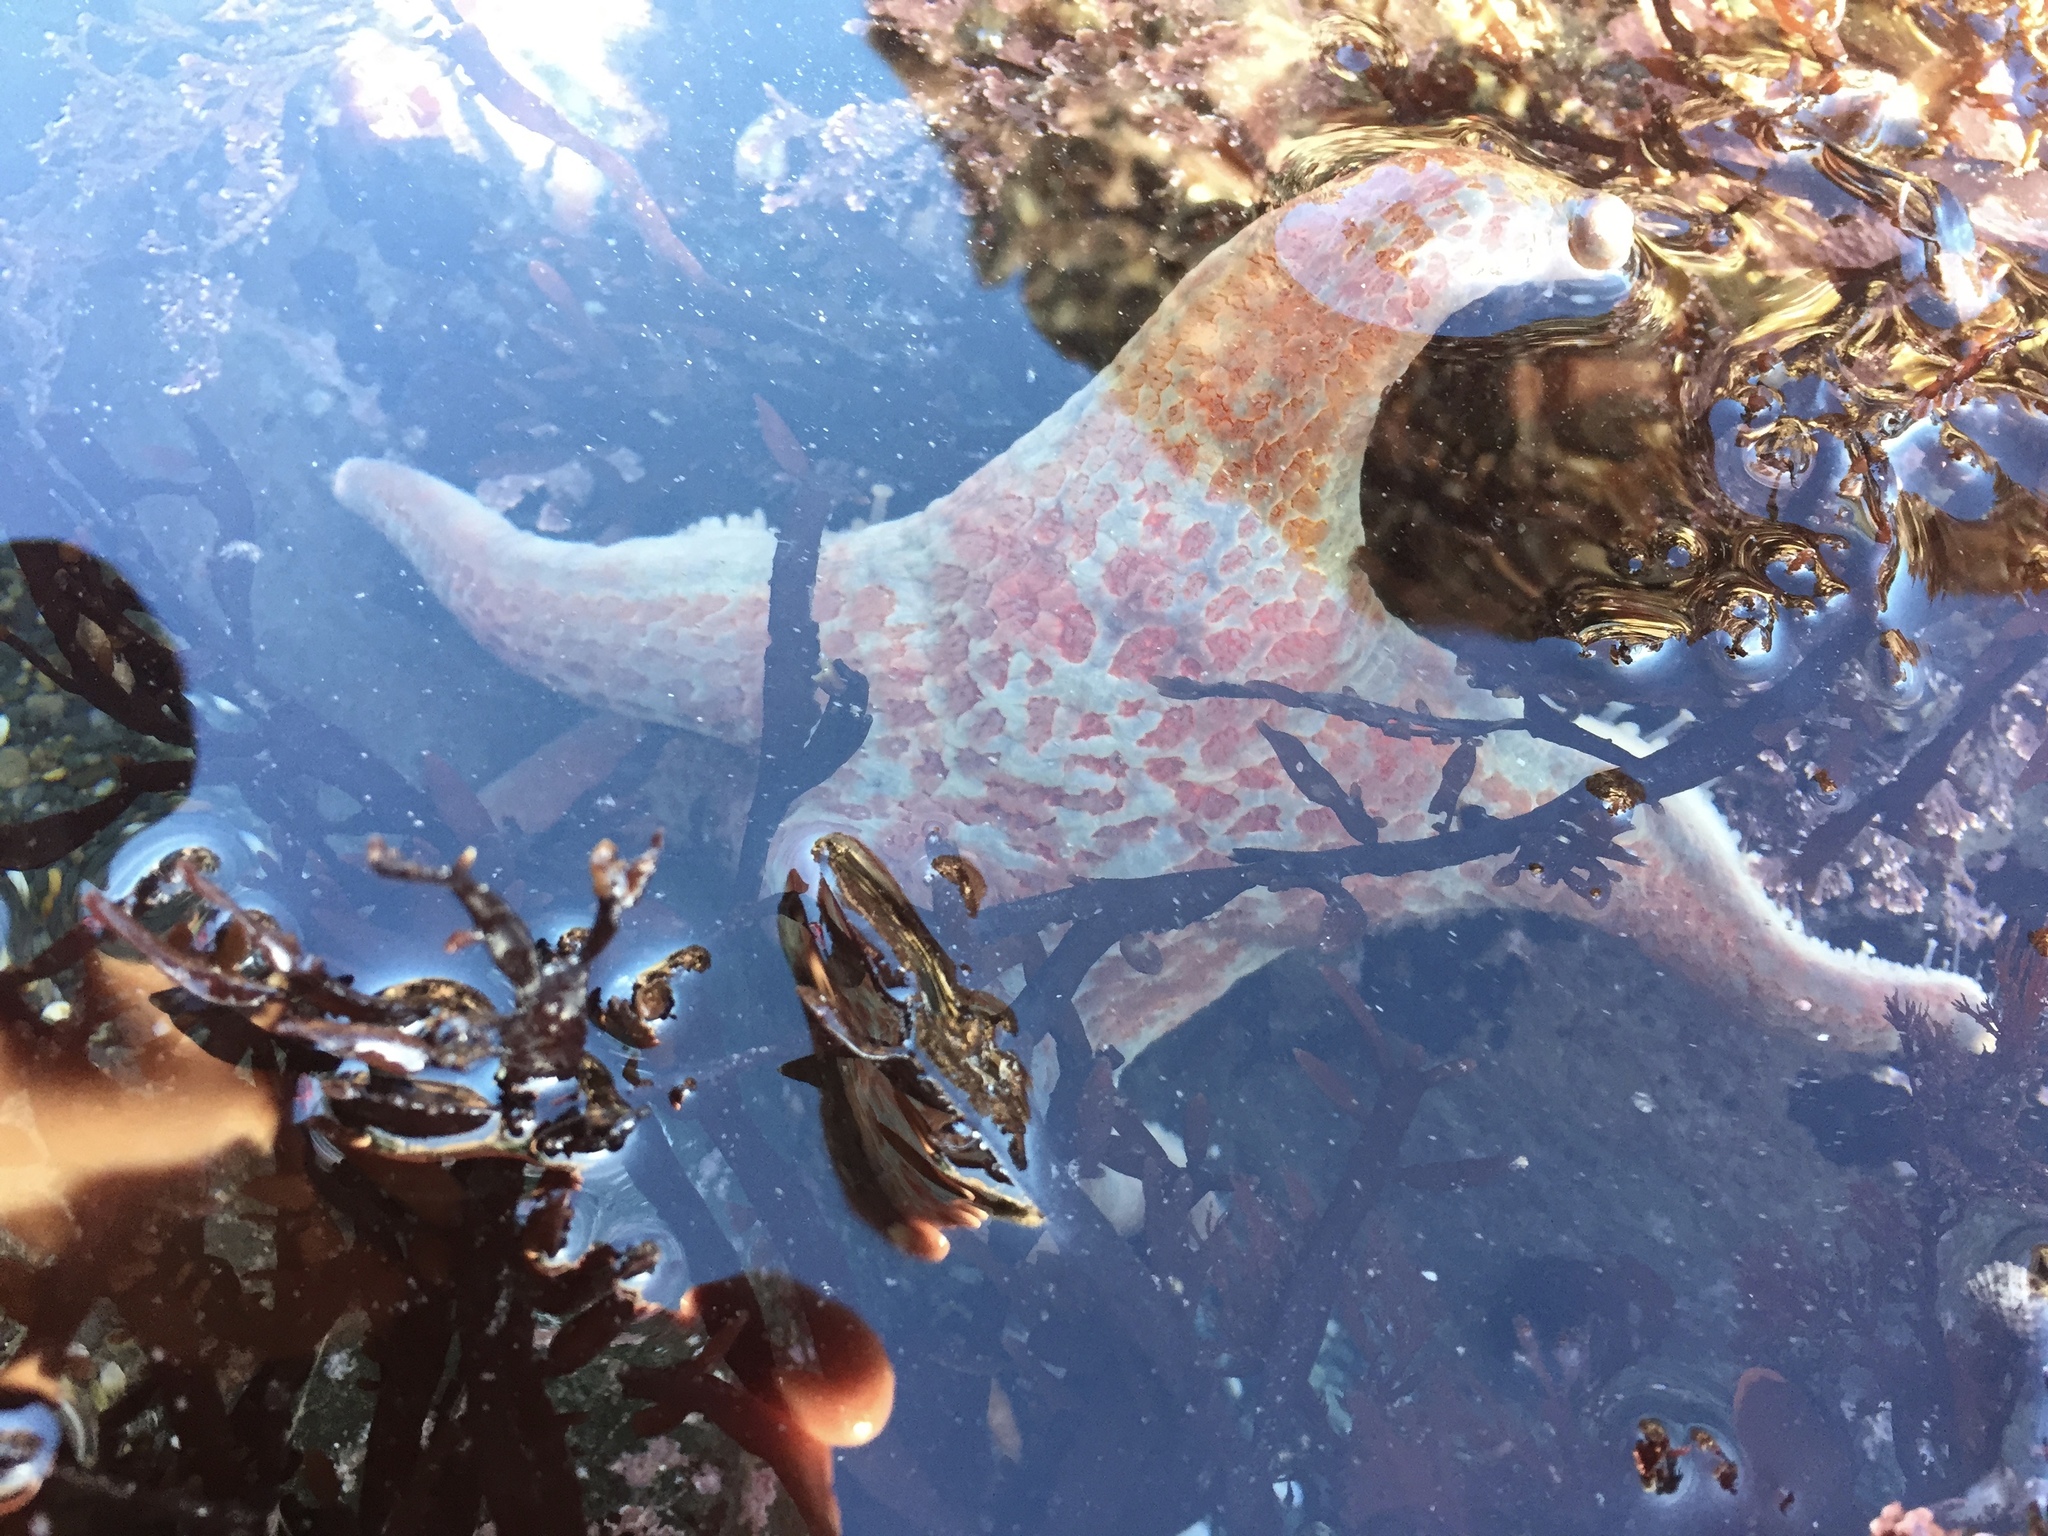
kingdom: Animalia
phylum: Echinodermata
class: Asteroidea
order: Valvatida
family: Asteropseidae
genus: Dermasterias
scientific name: Dermasterias imbricata
